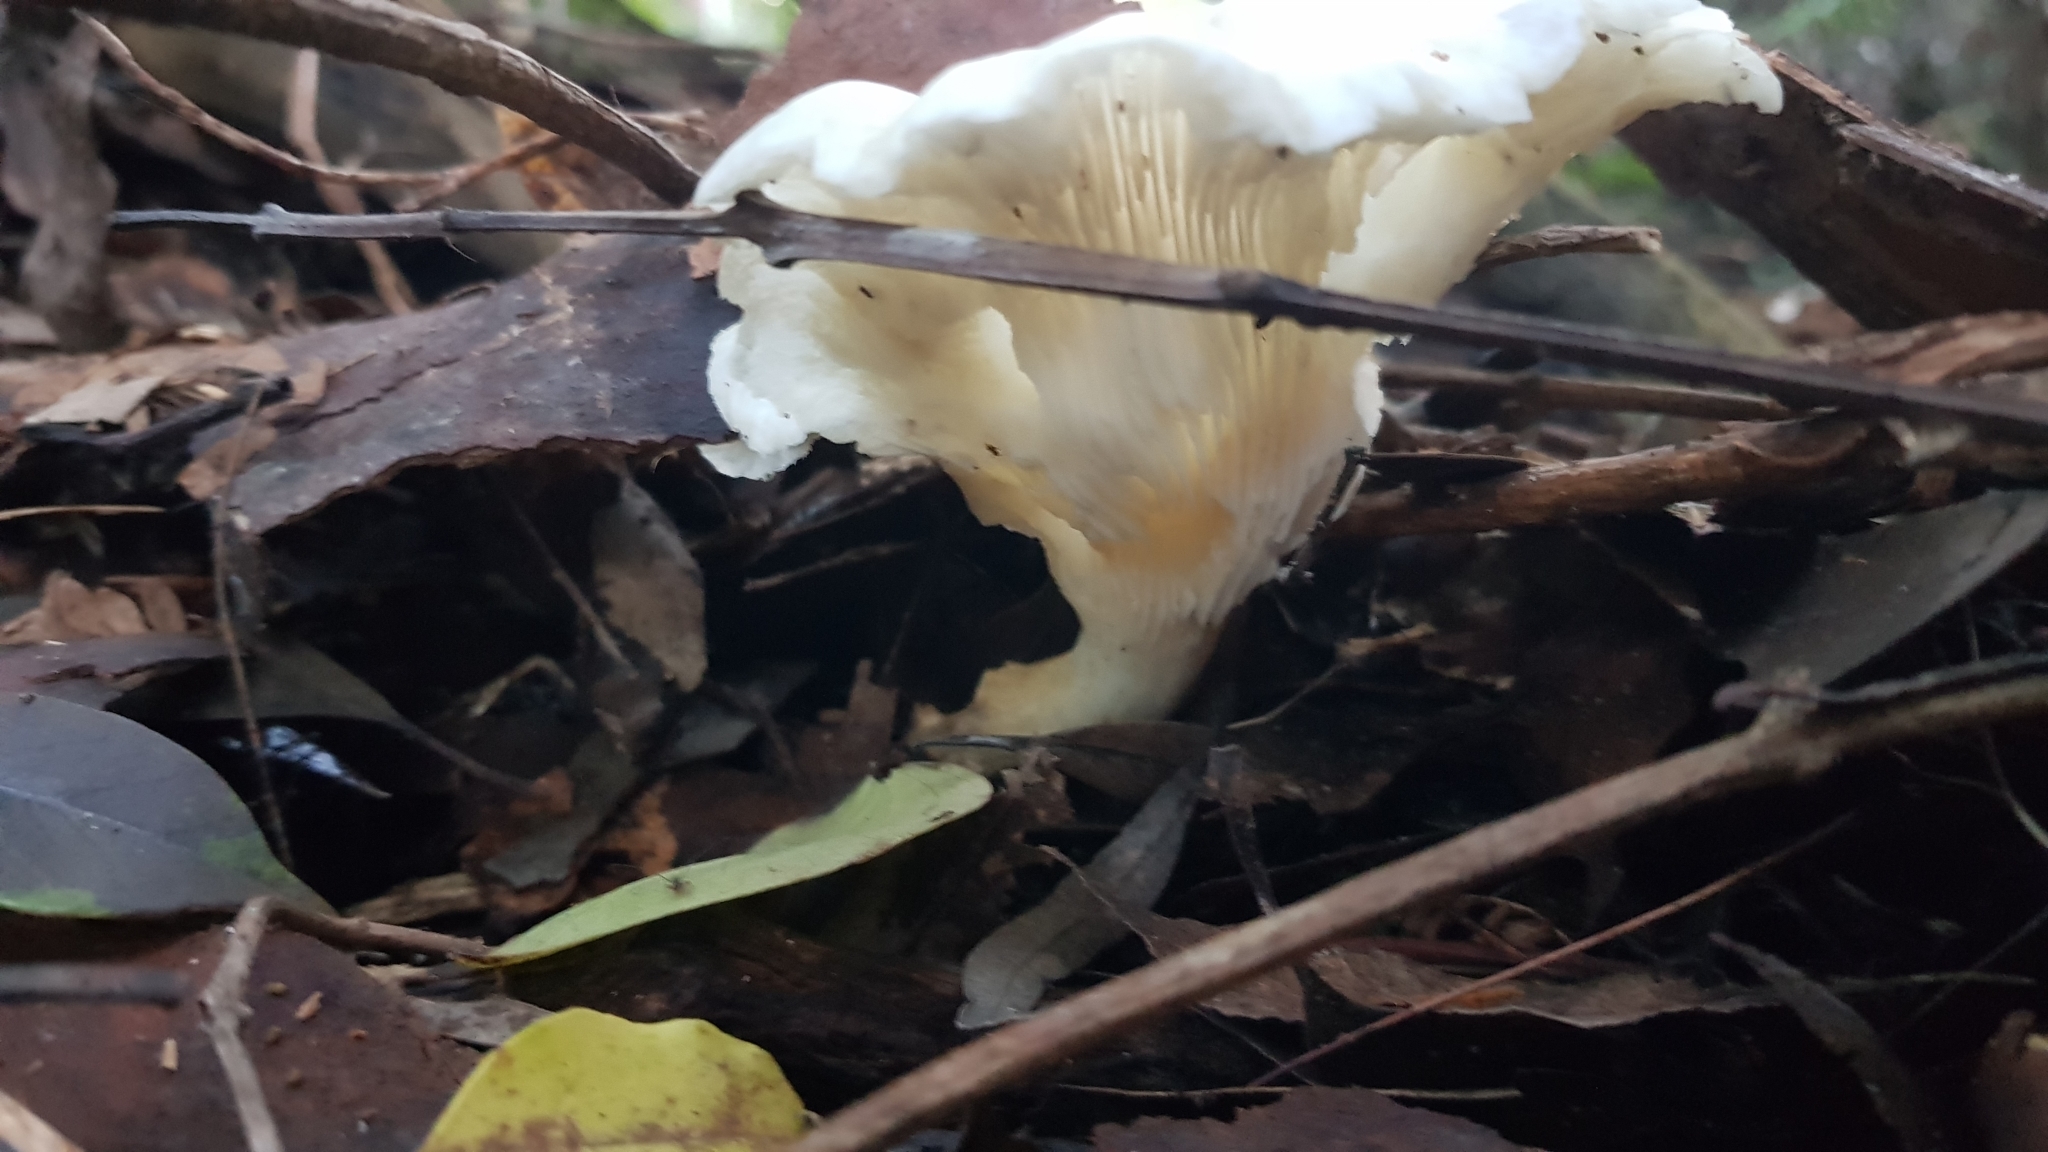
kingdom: Fungi
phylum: Basidiomycota
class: Agaricomycetes
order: Agaricales
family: Omphalotaceae
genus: Omphalotus
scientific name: Omphalotus nidiformis
